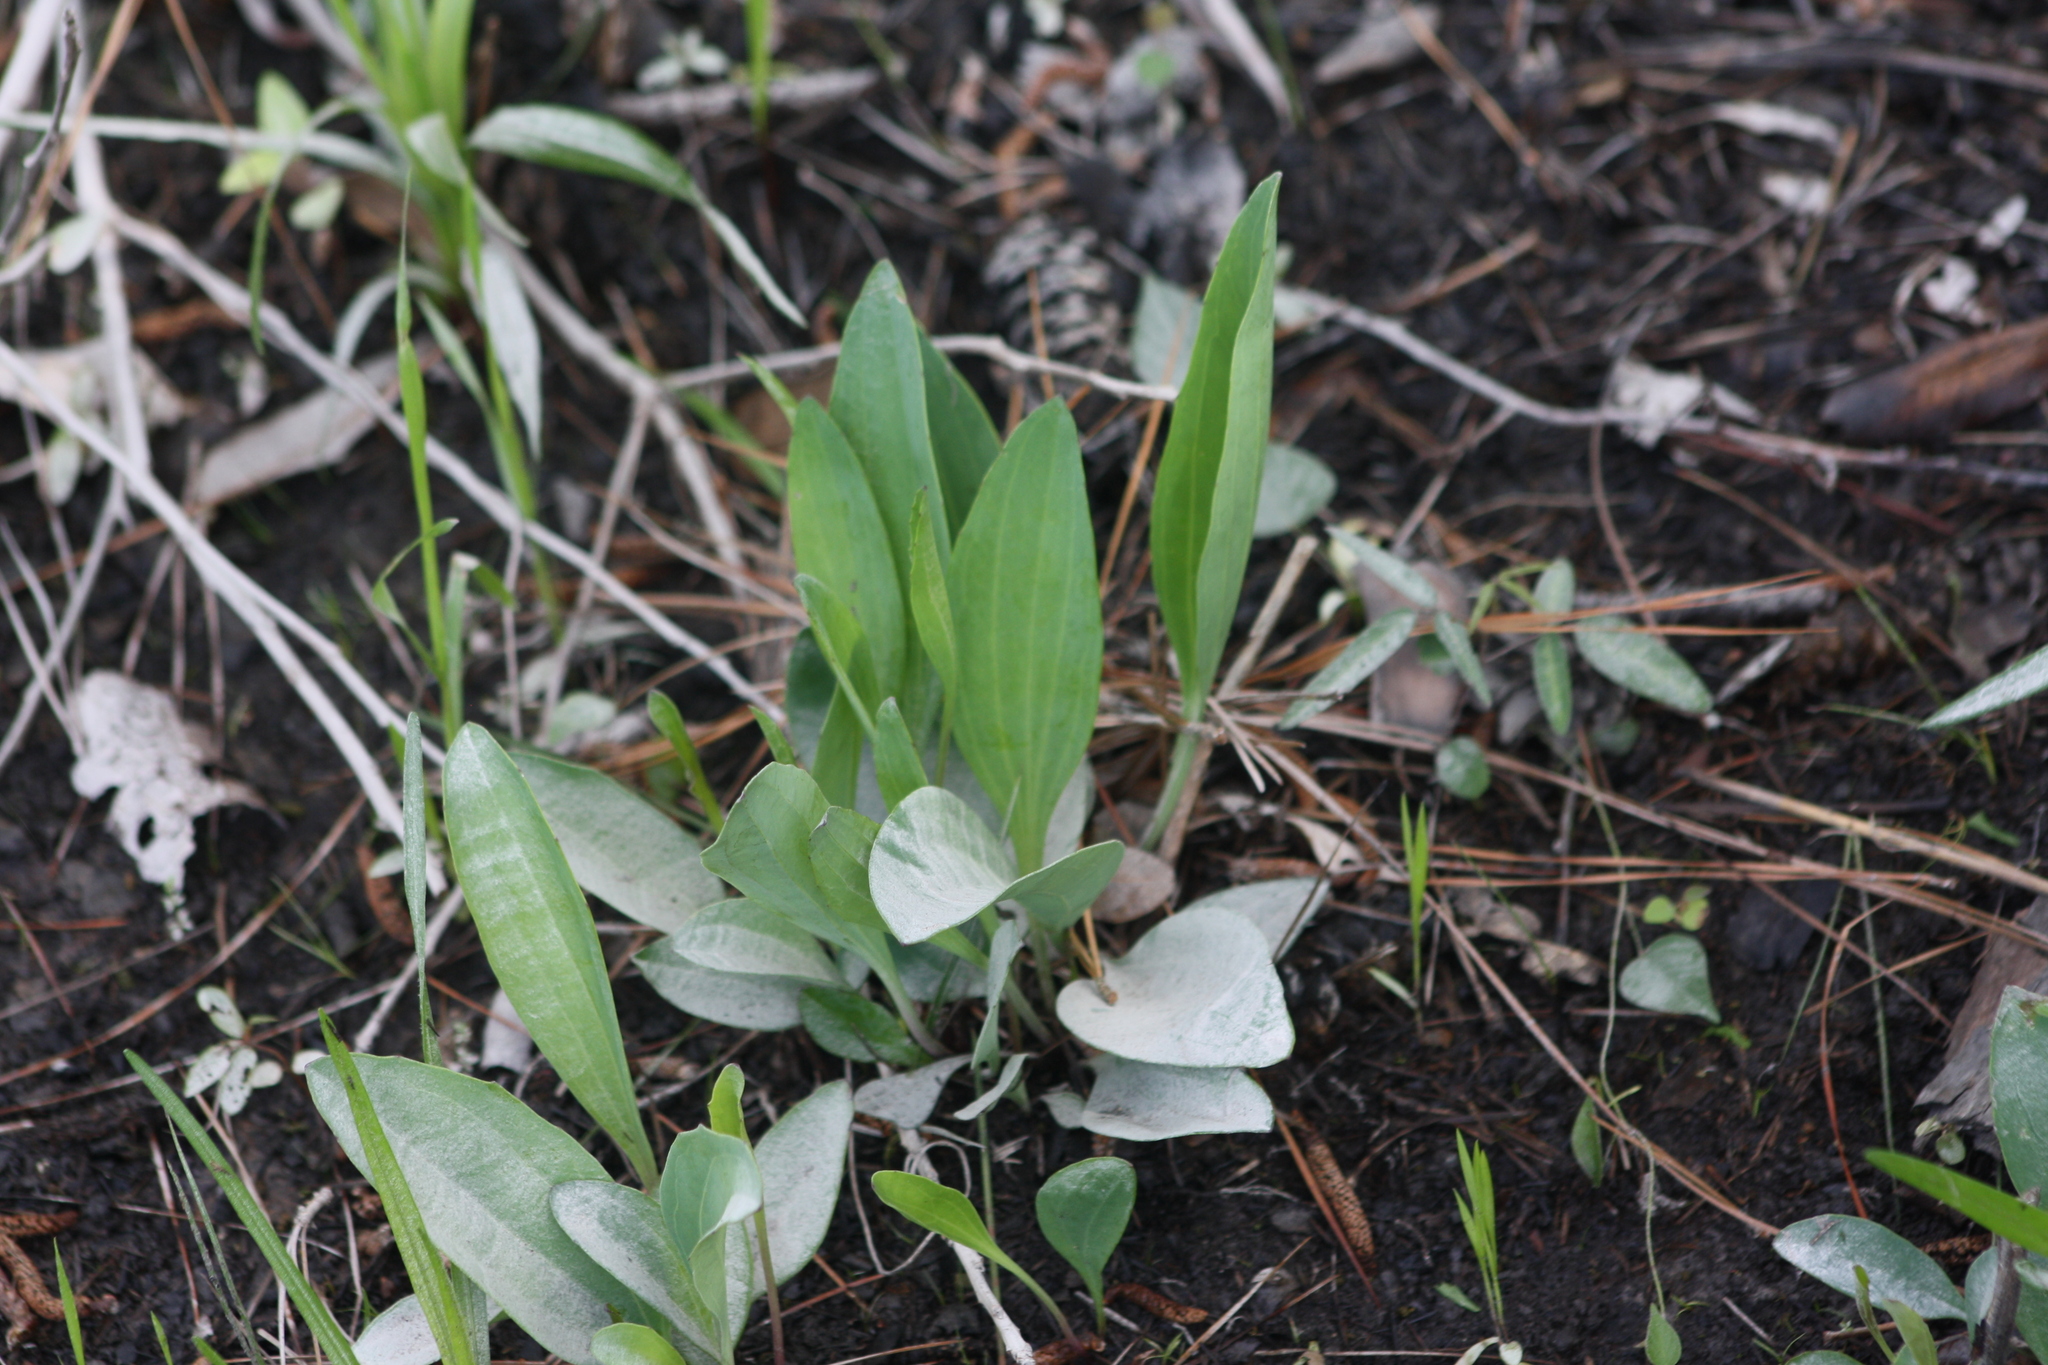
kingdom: Plantae
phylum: Tracheophyta
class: Magnoliopsida
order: Asterales
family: Asteraceae
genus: Arnoglossum
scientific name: Arnoglossum ovatum
